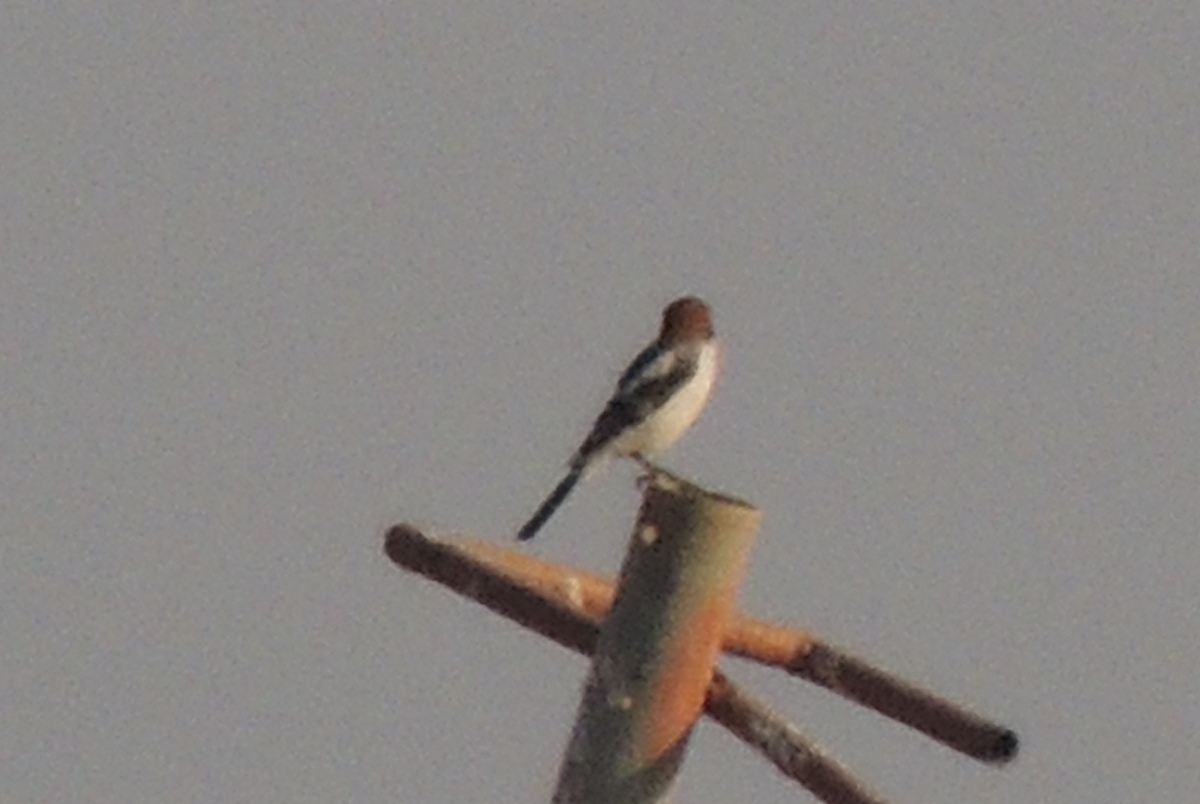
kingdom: Animalia
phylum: Chordata
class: Aves
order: Passeriformes
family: Laniidae
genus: Lanius
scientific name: Lanius senator
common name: Woodchat shrike
